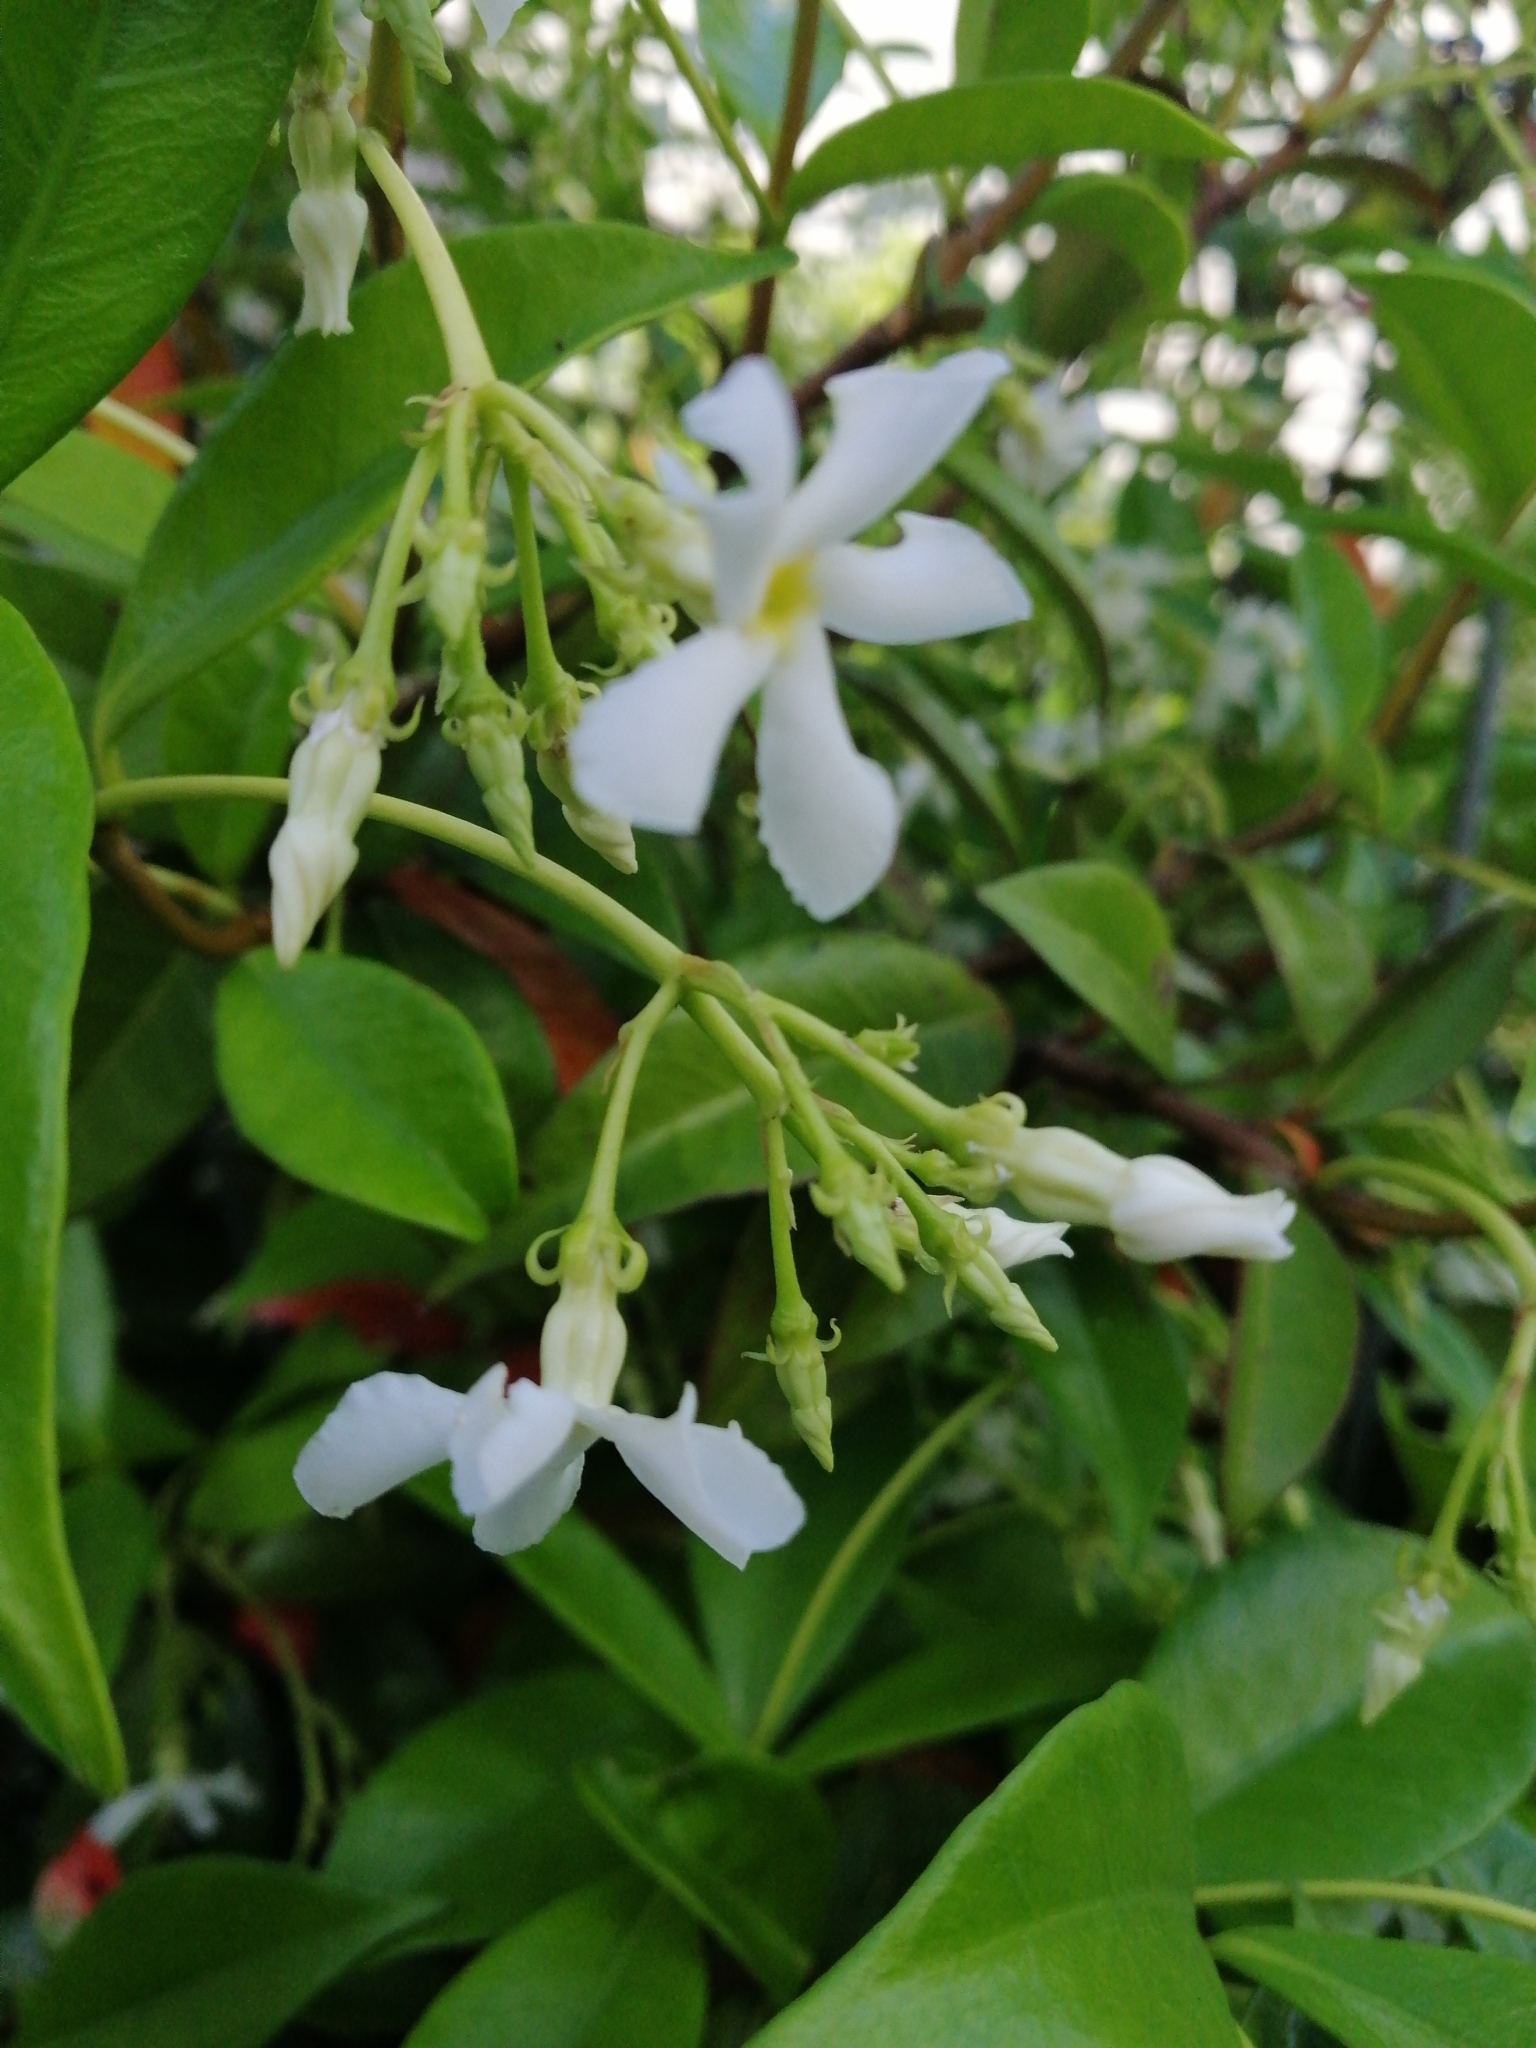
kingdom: Plantae
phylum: Tracheophyta
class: Magnoliopsida
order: Gentianales
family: Apocynaceae
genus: Trachelospermum
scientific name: Trachelospermum jasminoides
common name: Confederate jasmine
